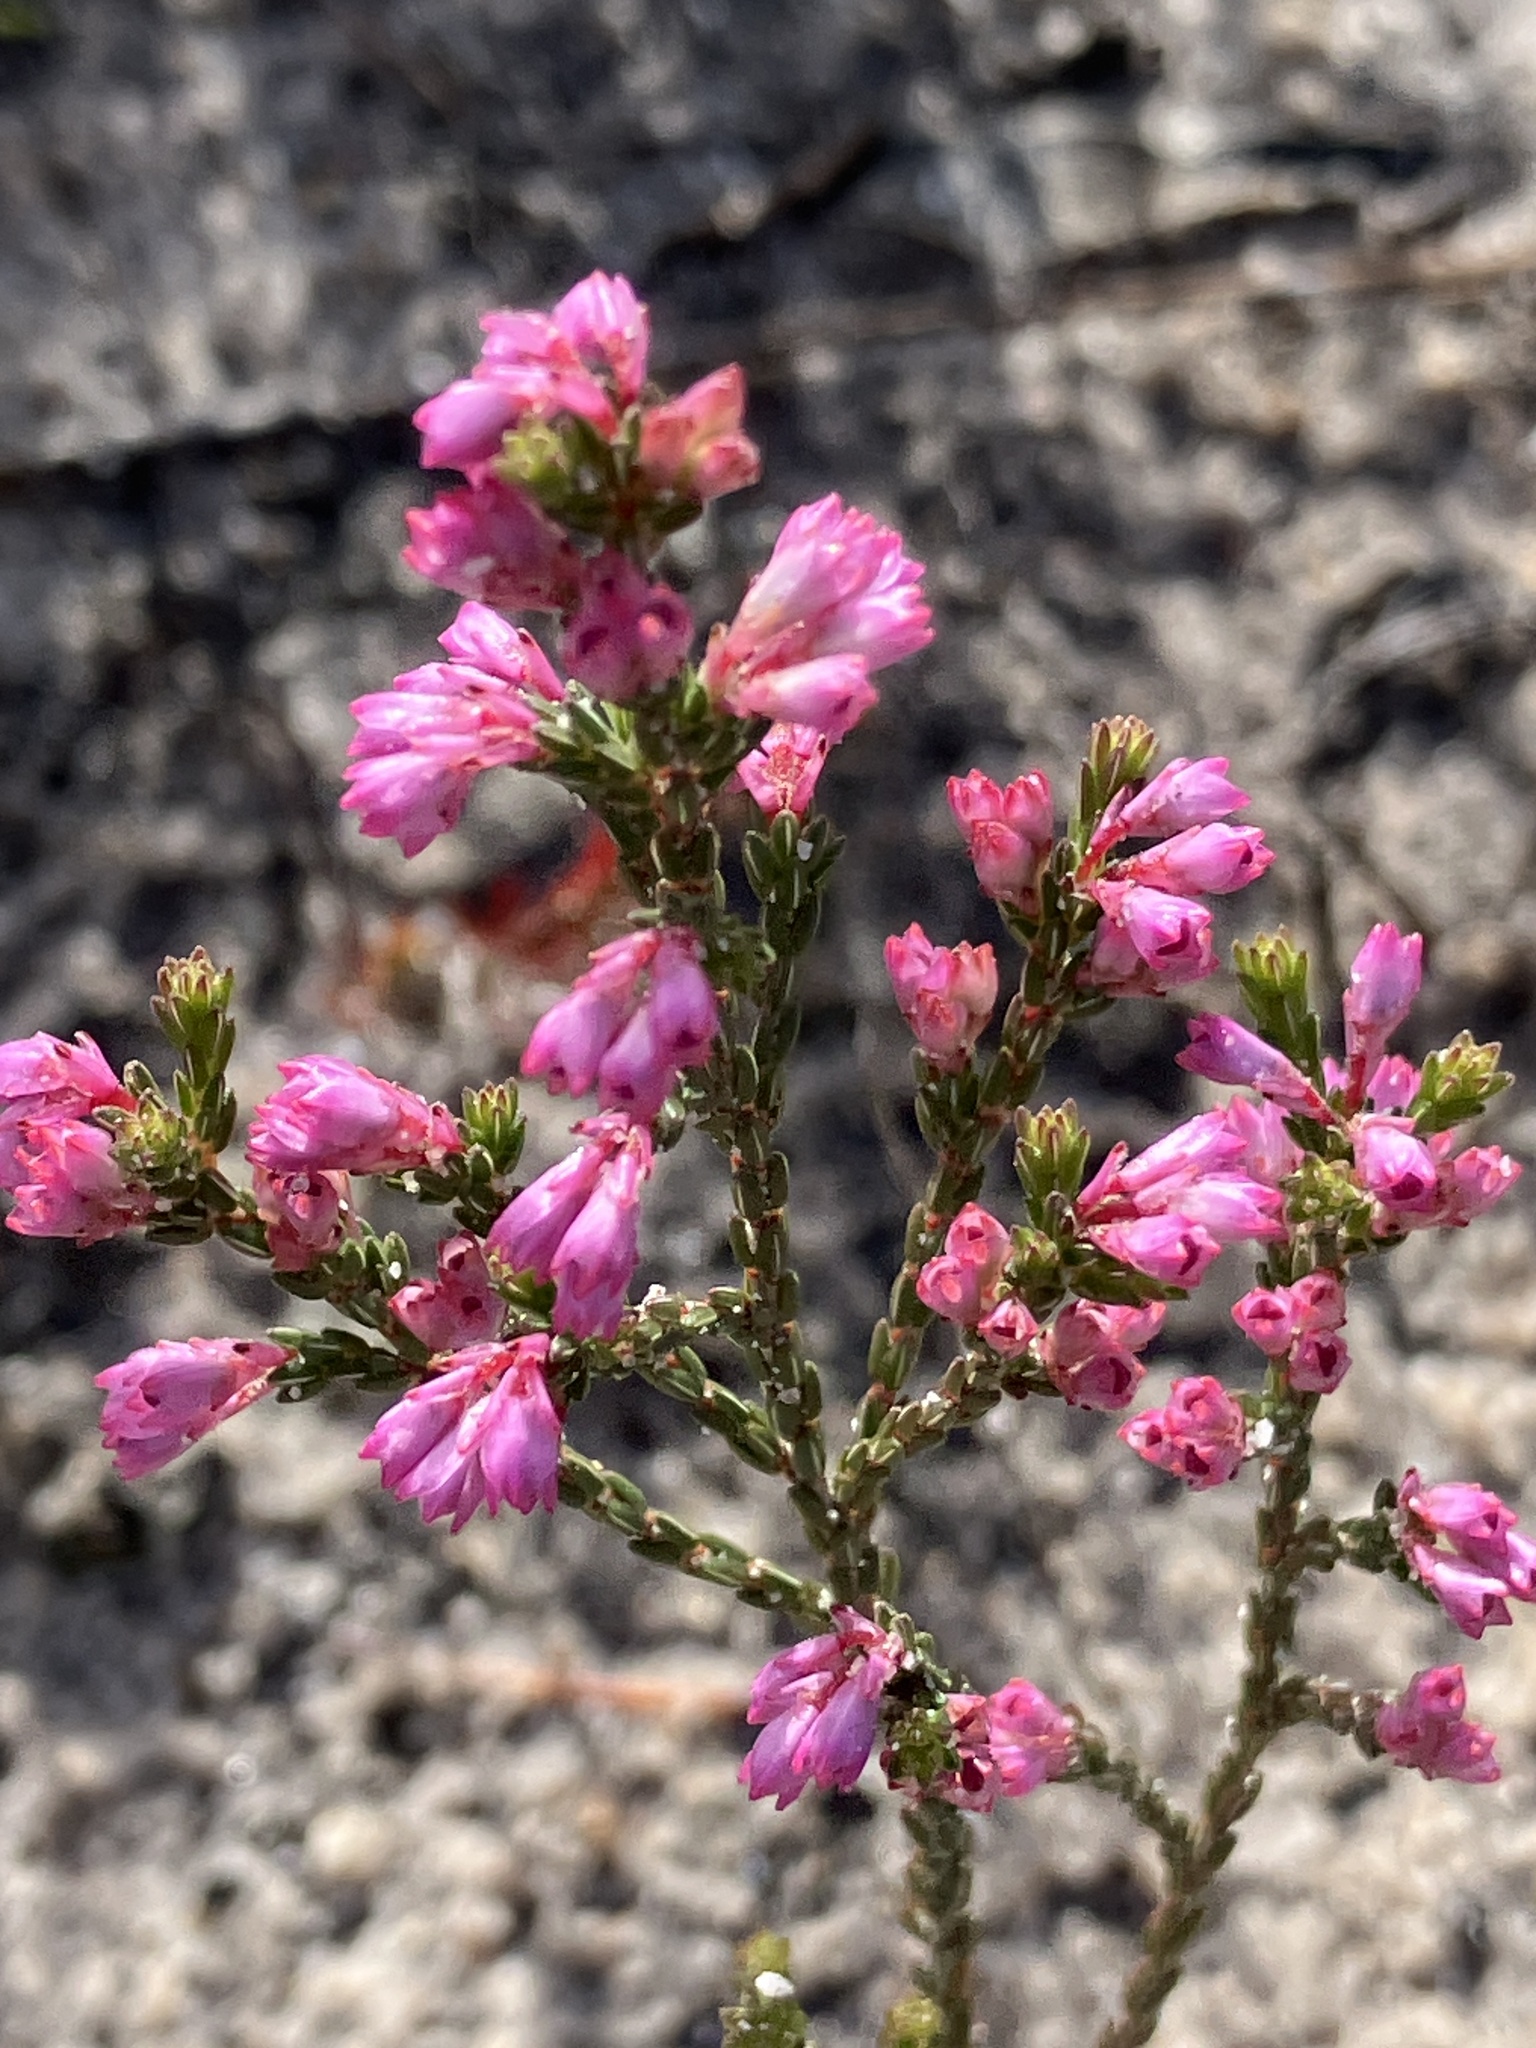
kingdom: Plantae
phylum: Tracheophyta
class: Magnoliopsida
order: Ericales
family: Ericaceae
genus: Erica
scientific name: Erica gnaphaloides
